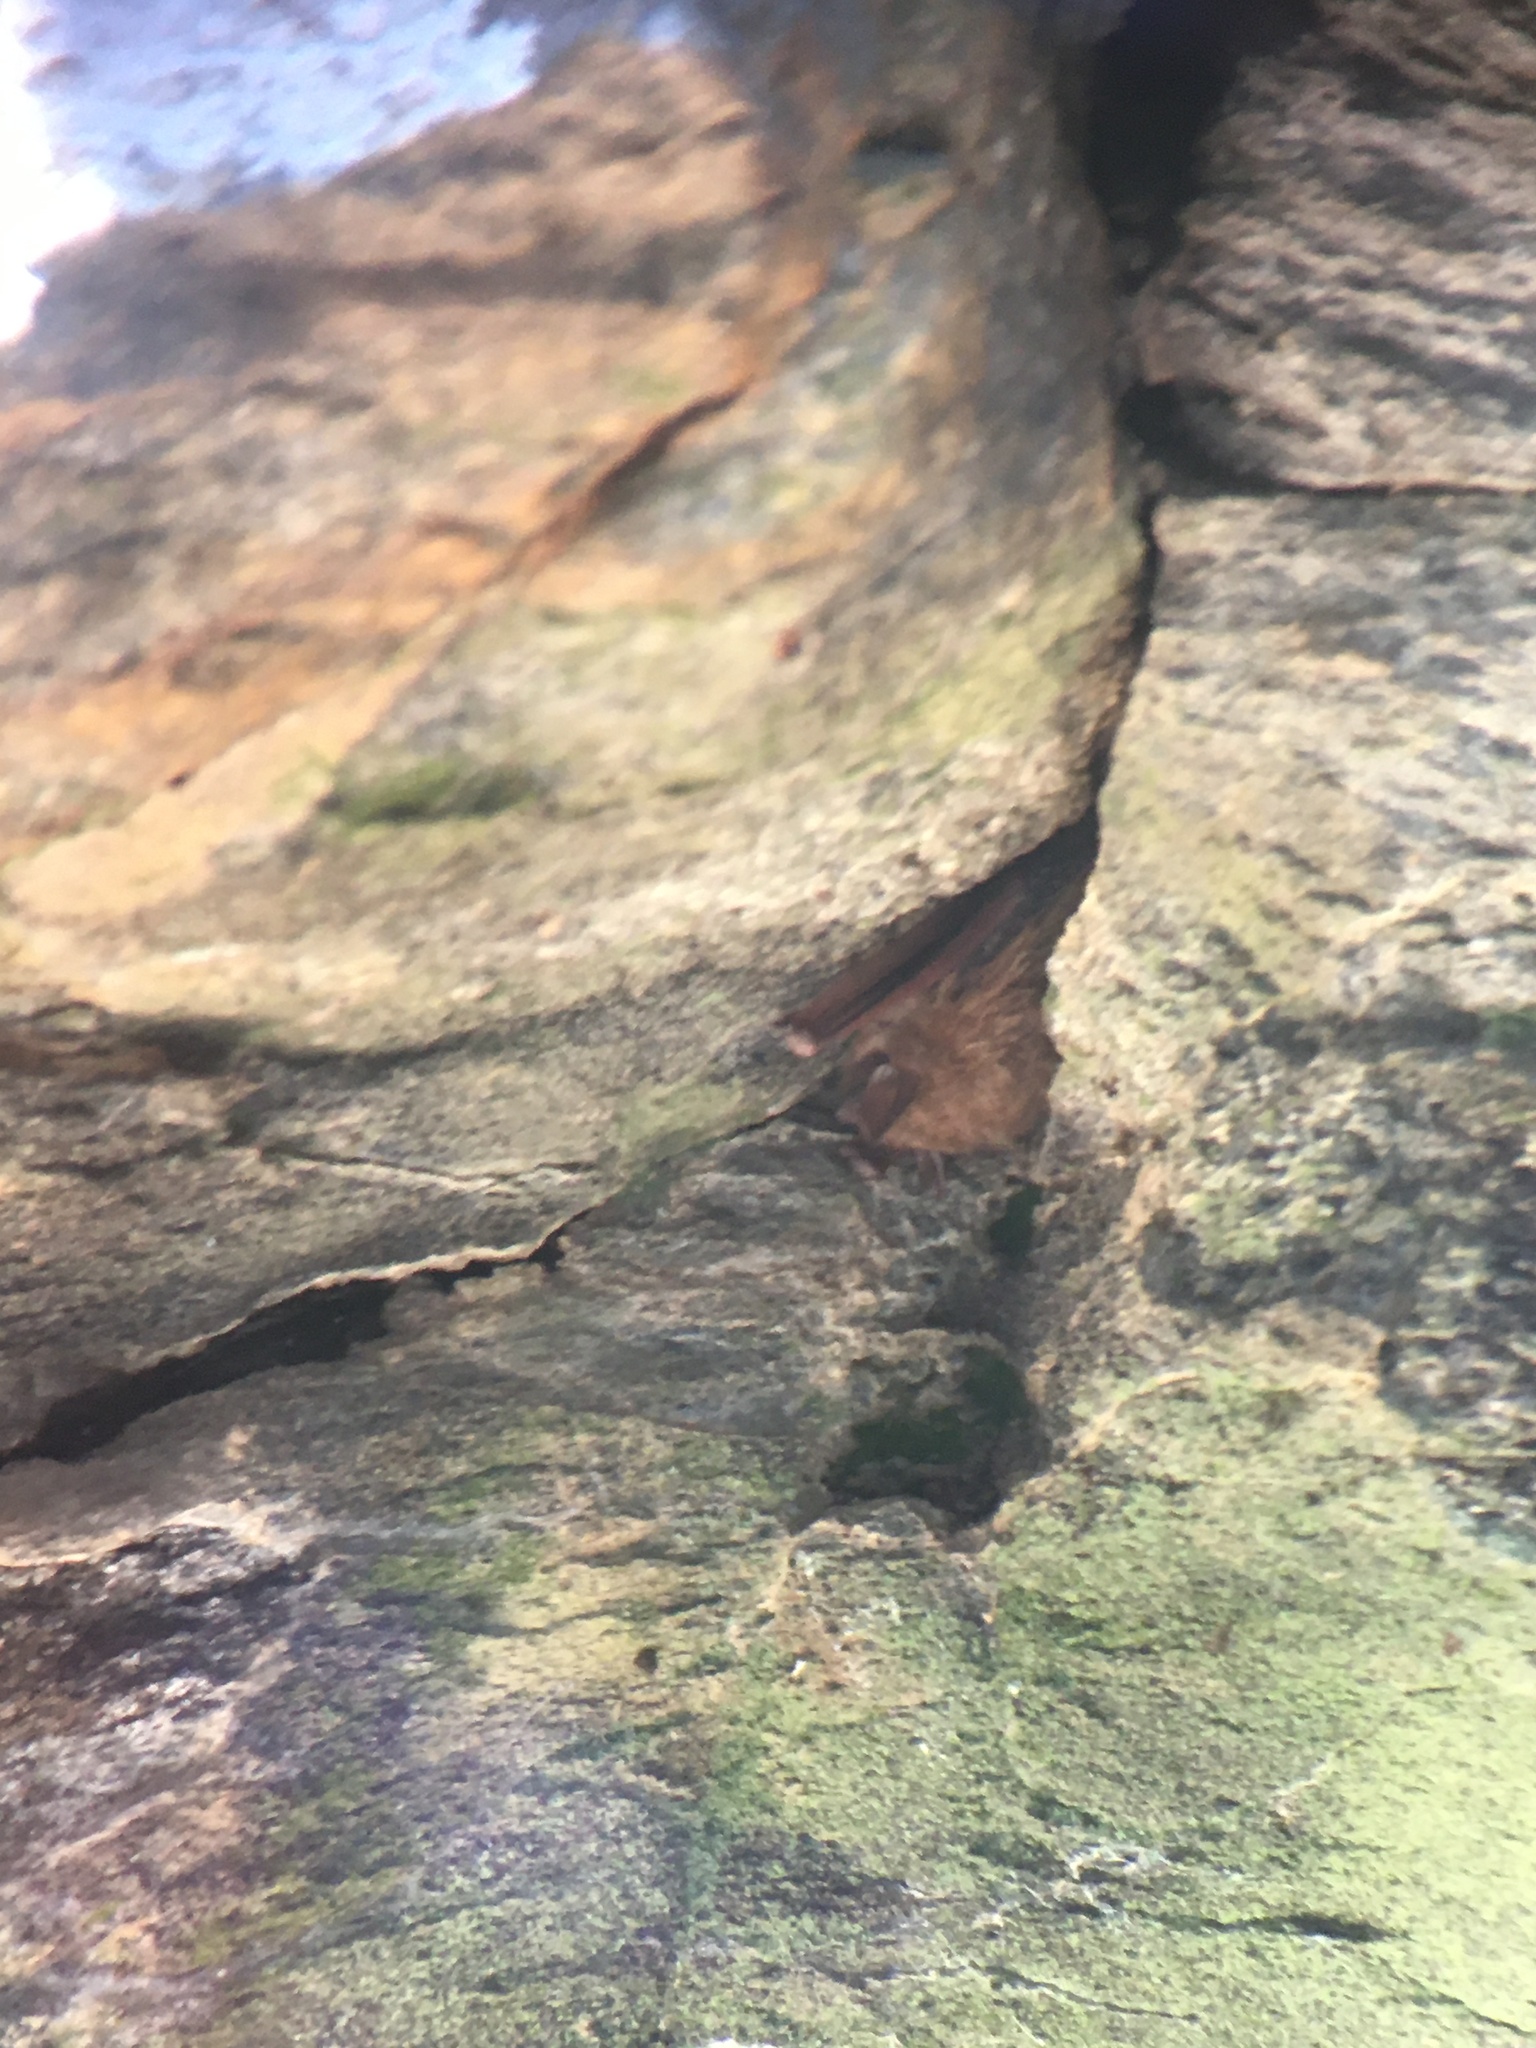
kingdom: Animalia
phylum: Chordata
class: Mammalia
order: Chiroptera
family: Vespertilionidae
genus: Perimyotis
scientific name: Perimyotis subflavus
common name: Eastern pipistrelle
